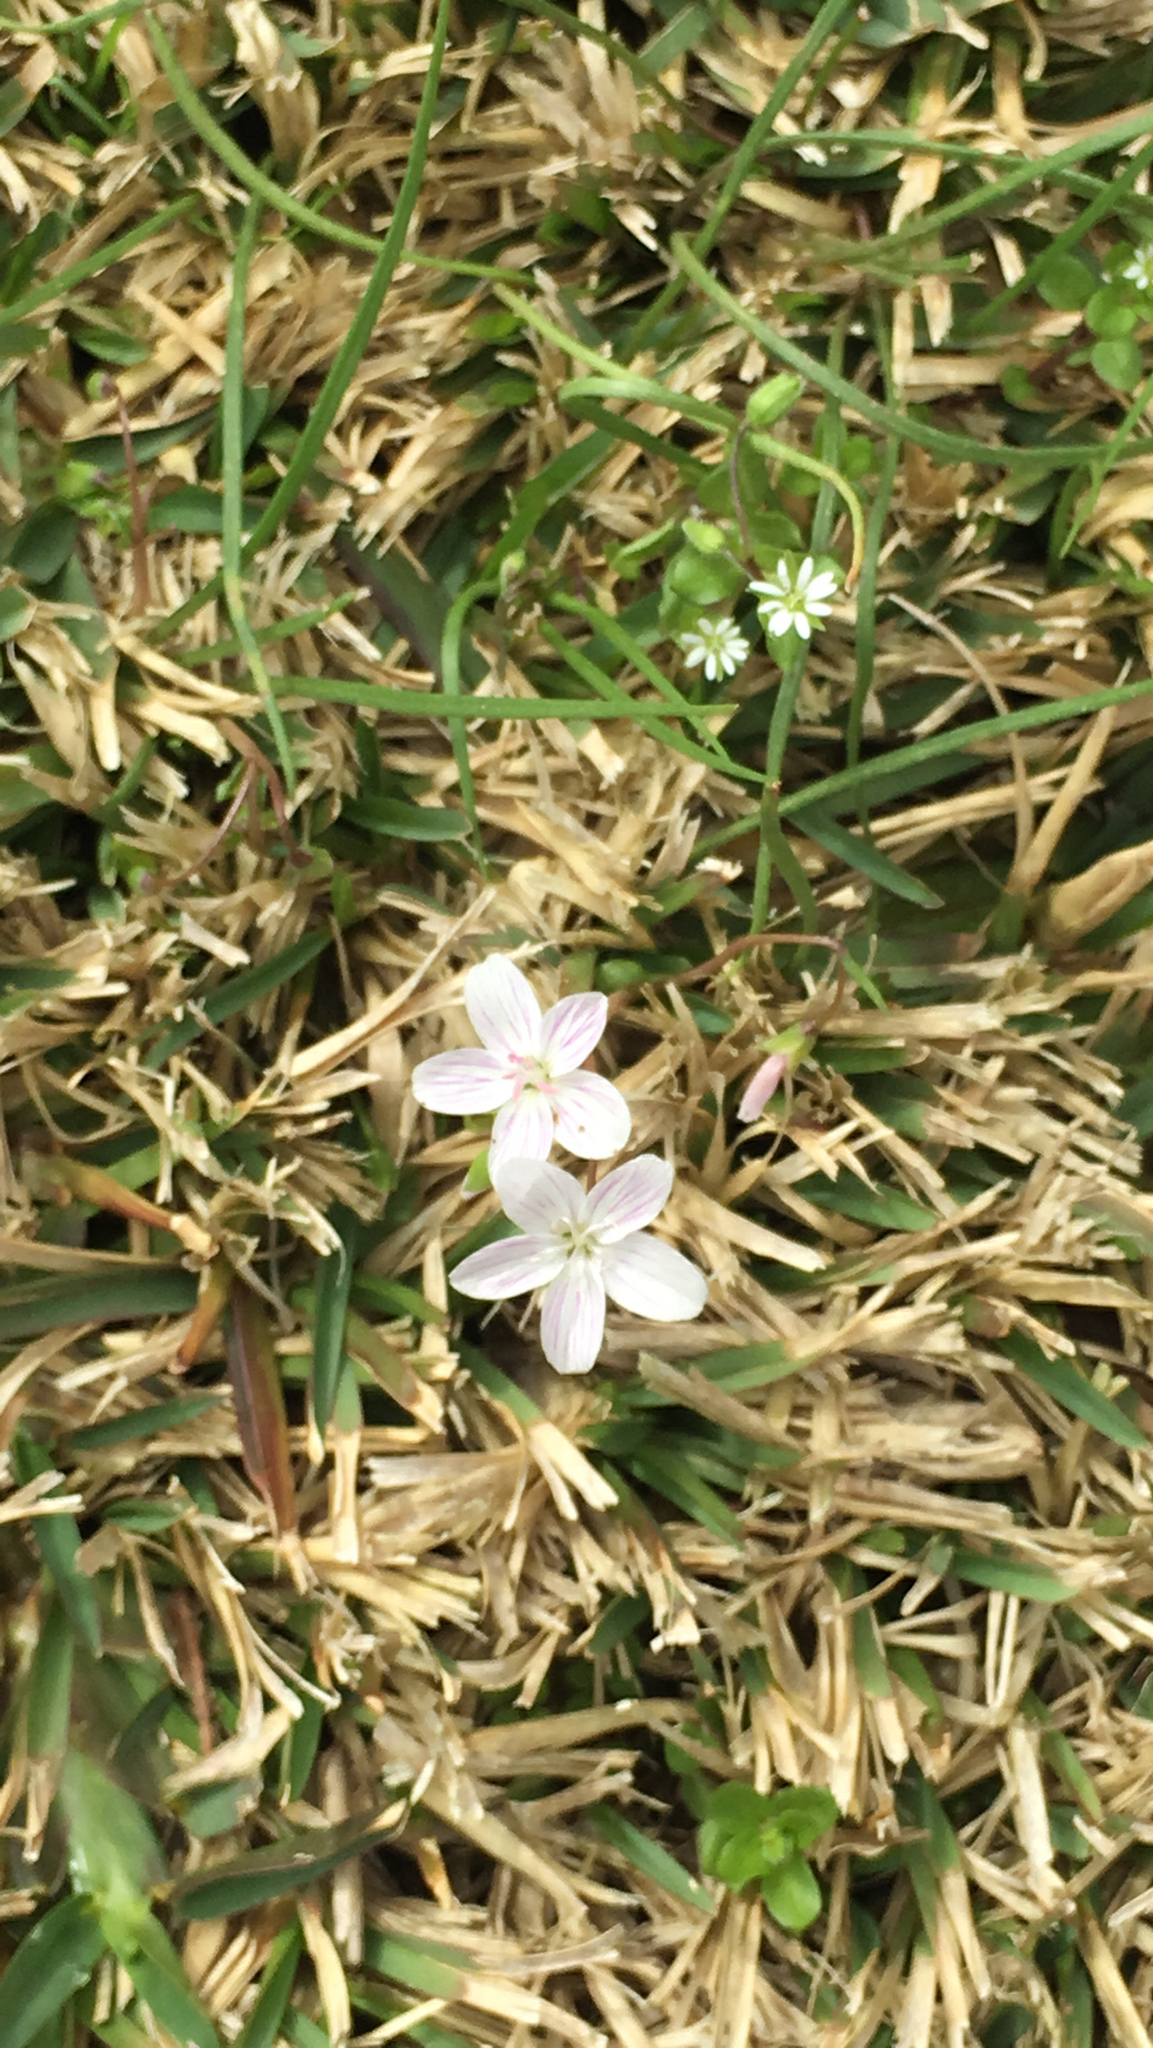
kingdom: Plantae
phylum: Tracheophyta
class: Magnoliopsida
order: Caryophyllales
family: Montiaceae
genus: Claytonia
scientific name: Claytonia virginica
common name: Virginia springbeauty
